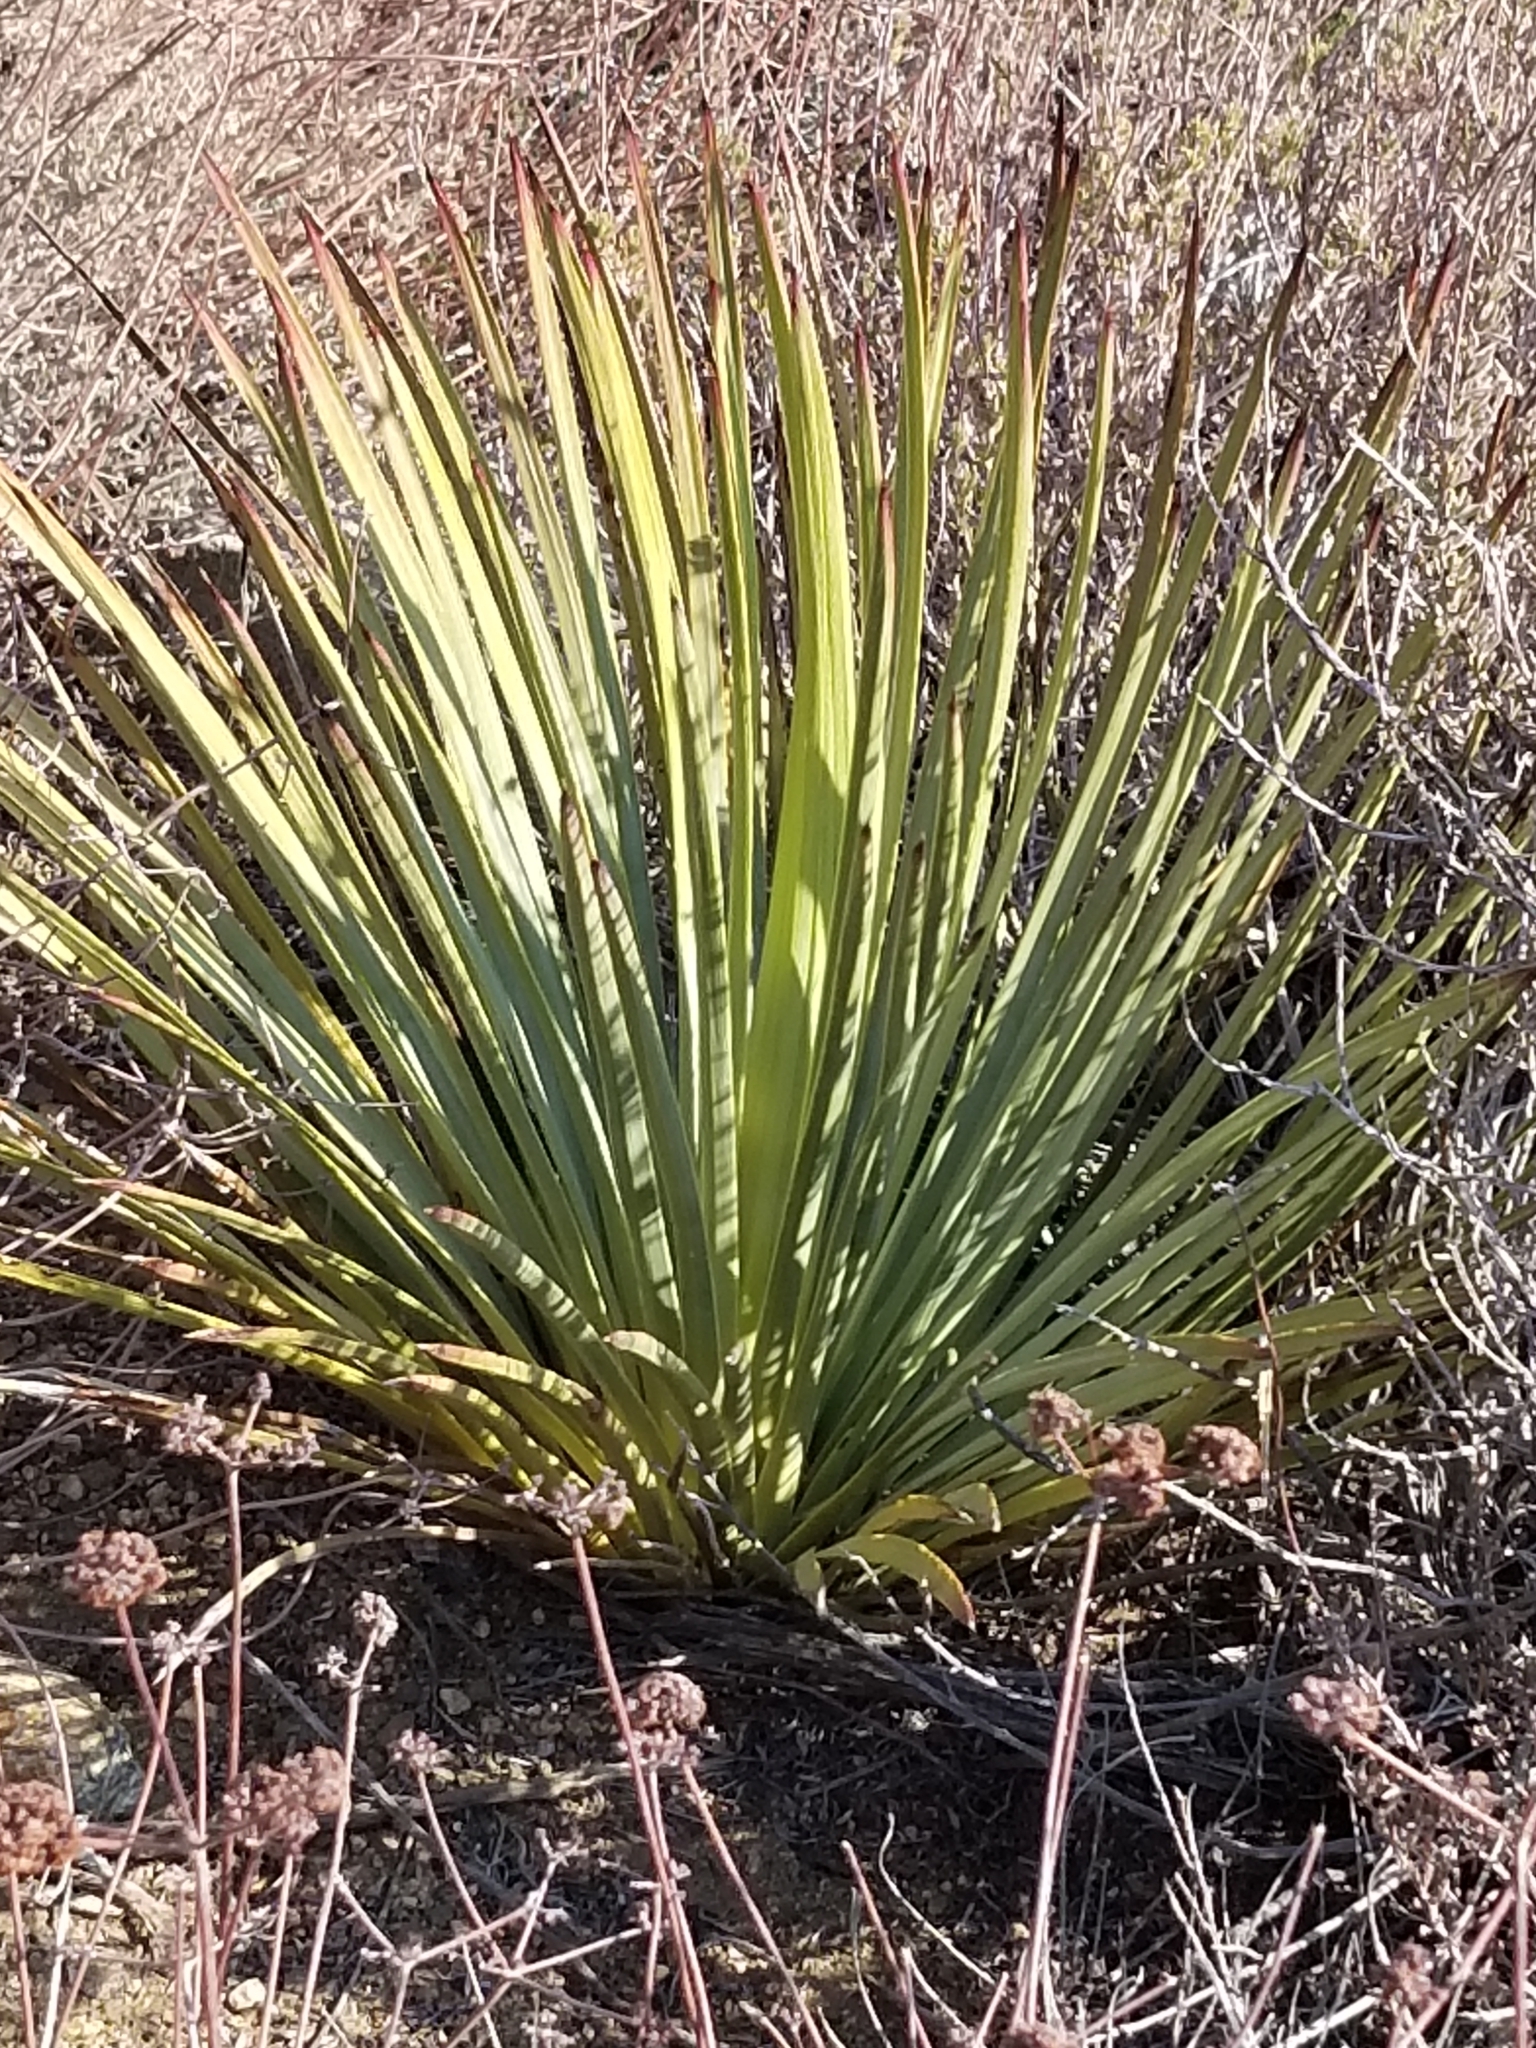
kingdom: Plantae
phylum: Tracheophyta
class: Liliopsida
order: Asparagales
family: Asparagaceae
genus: Hesperoyucca
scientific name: Hesperoyucca whipplei
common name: Our lord's-candle
